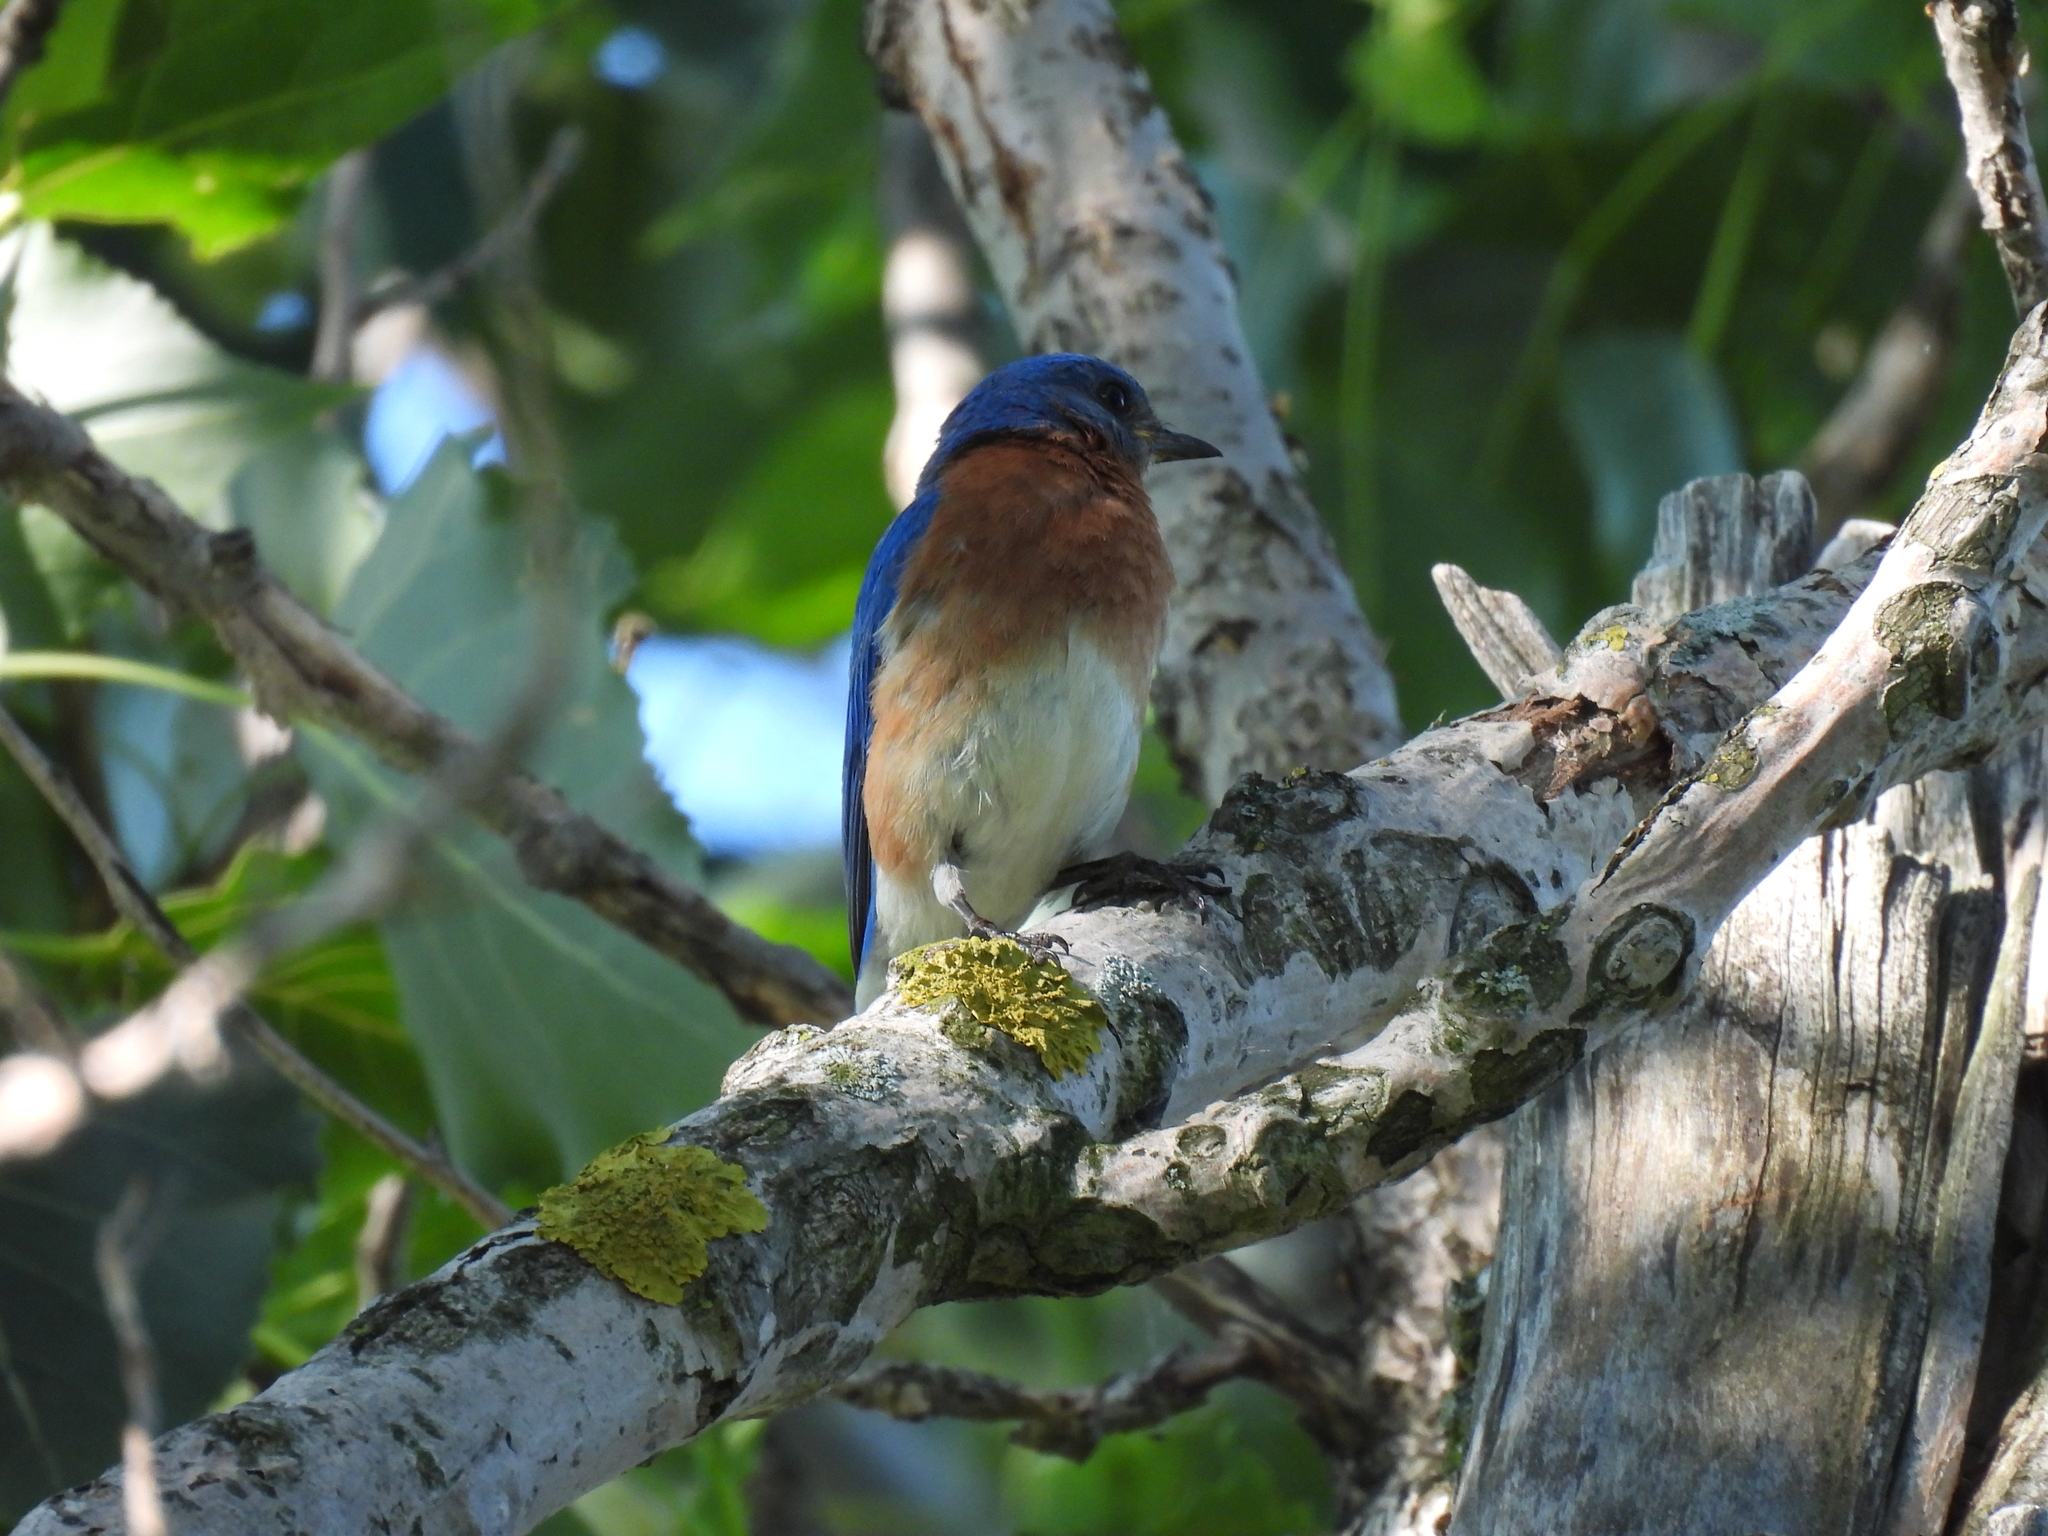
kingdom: Animalia
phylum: Chordata
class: Aves
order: Passeriformes
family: Turdidae
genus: Sialia
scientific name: Sialia sialis
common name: Eastern bluebird
